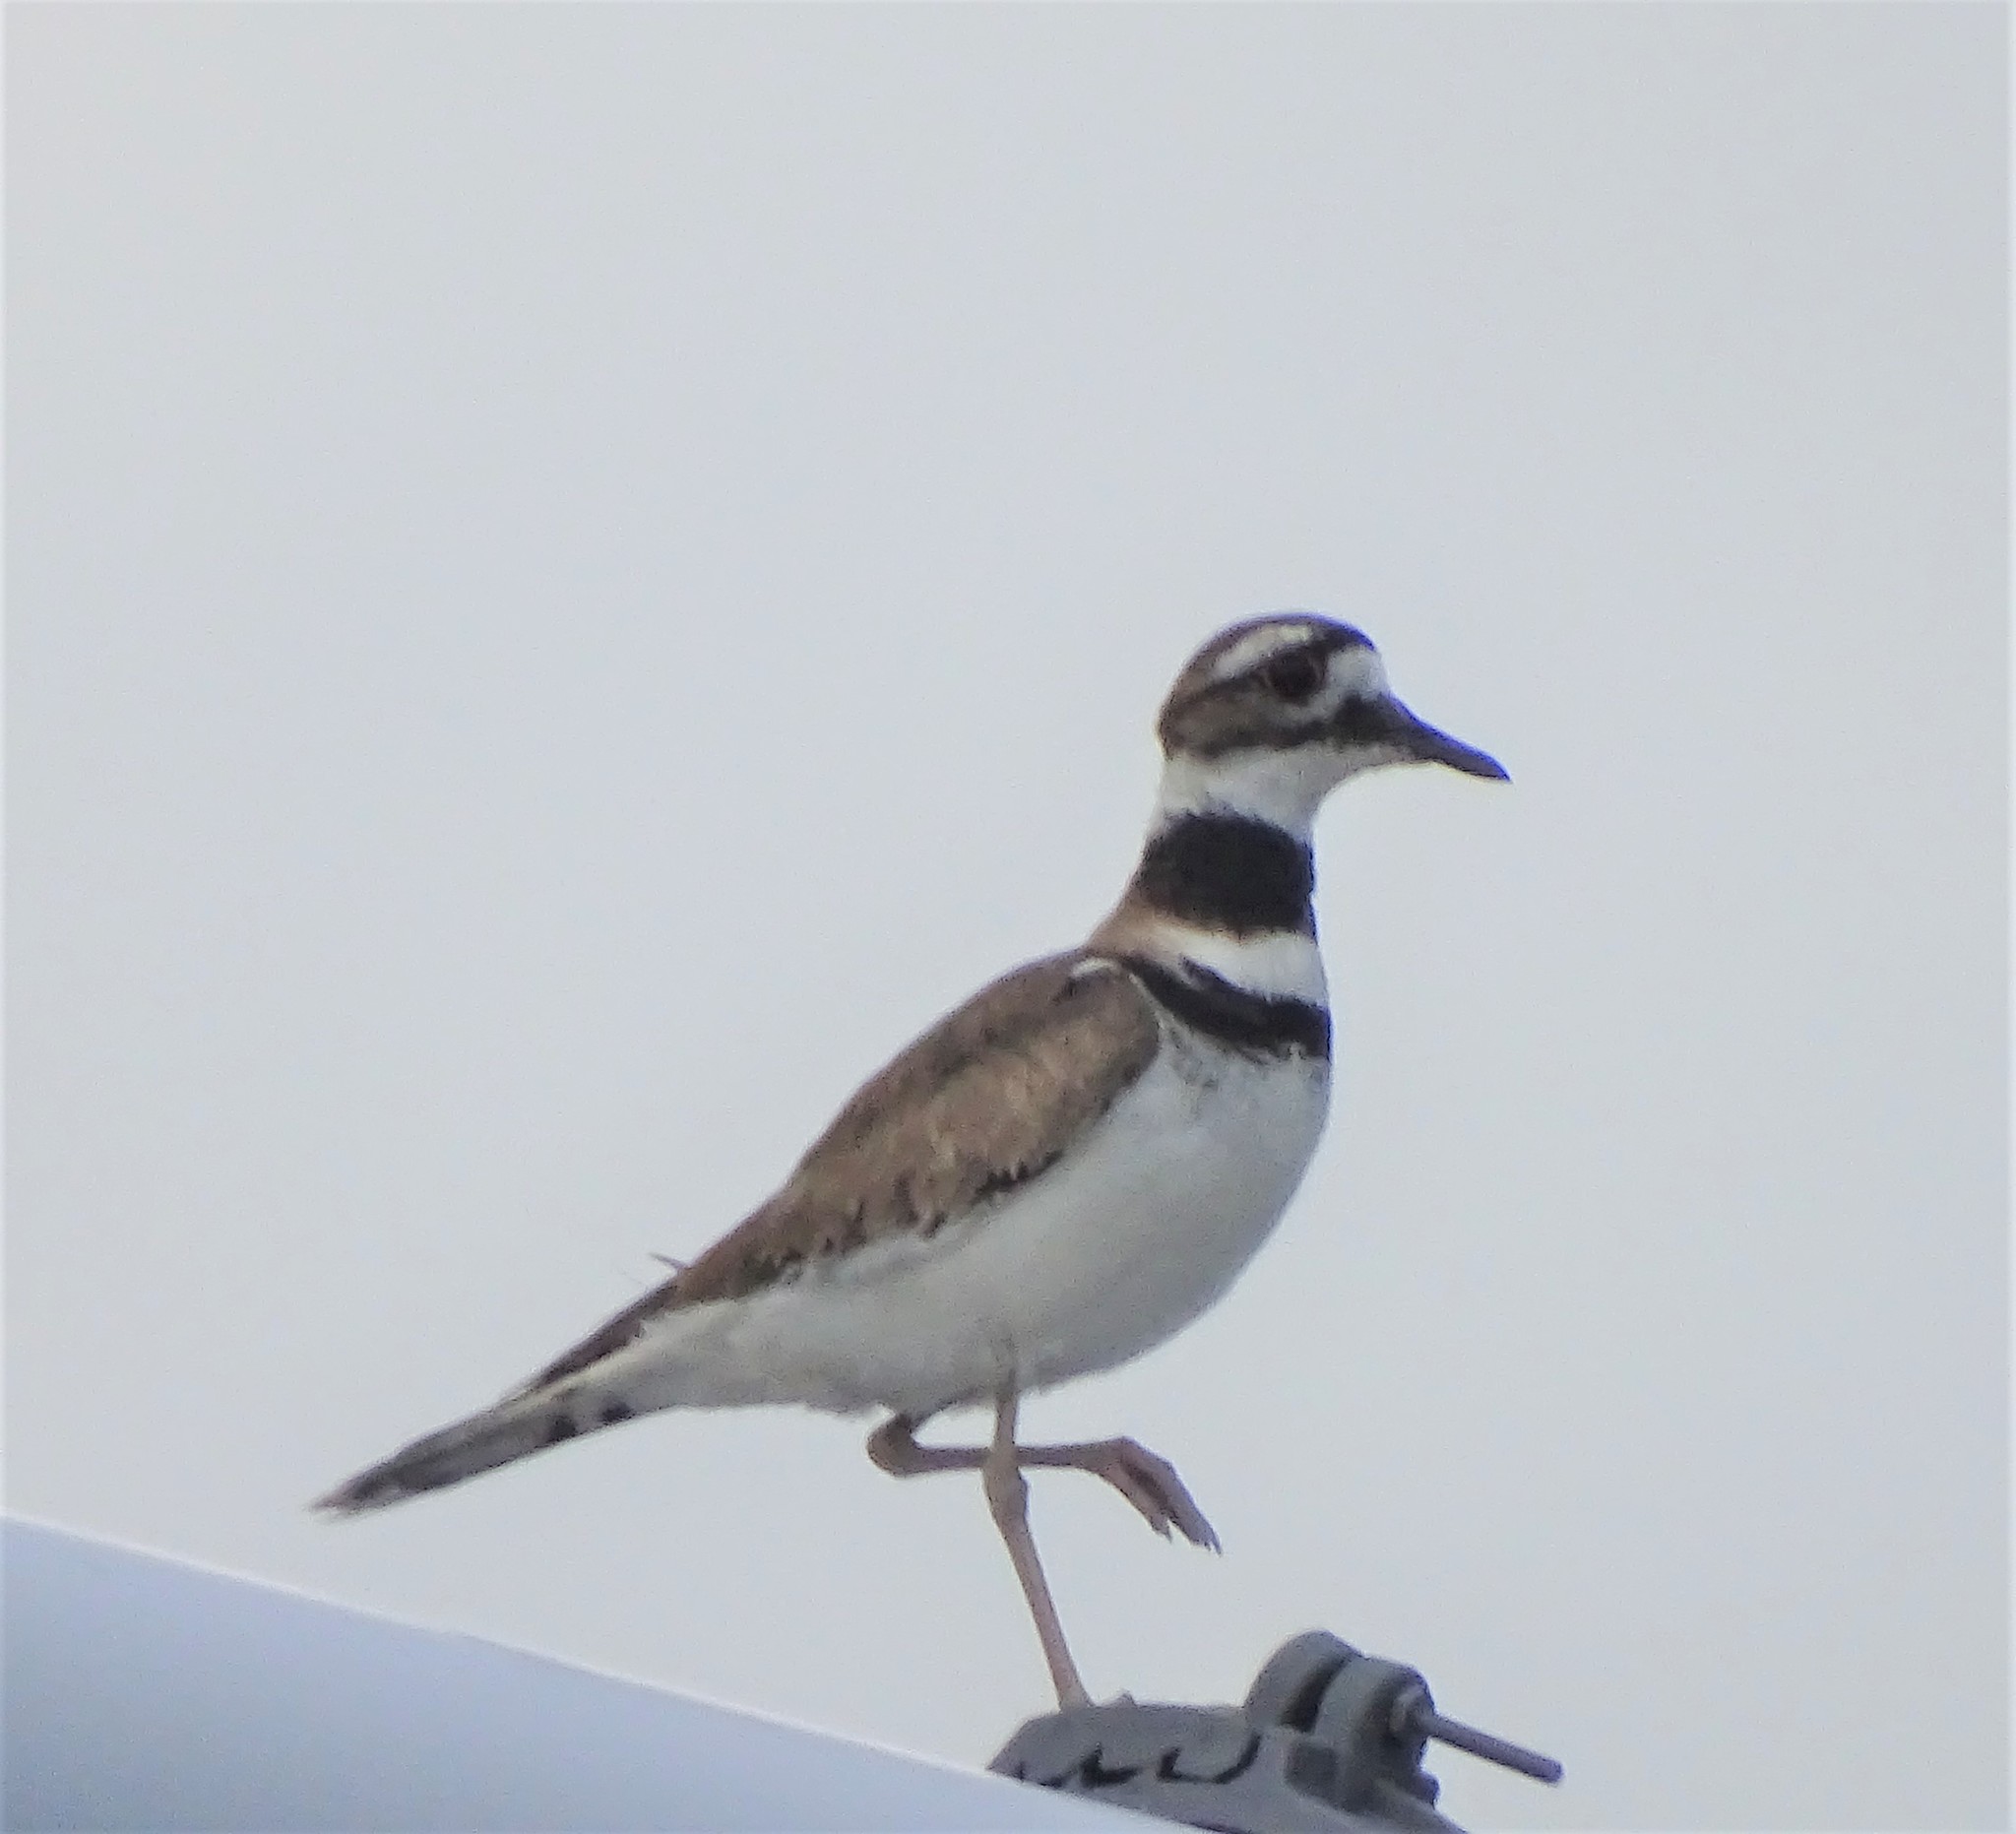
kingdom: Animalia
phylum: Chordata
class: Aves
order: Charadriiformes
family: Charadriidae
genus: Charadrius
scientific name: Charadrius vociferus
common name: Killdeer
